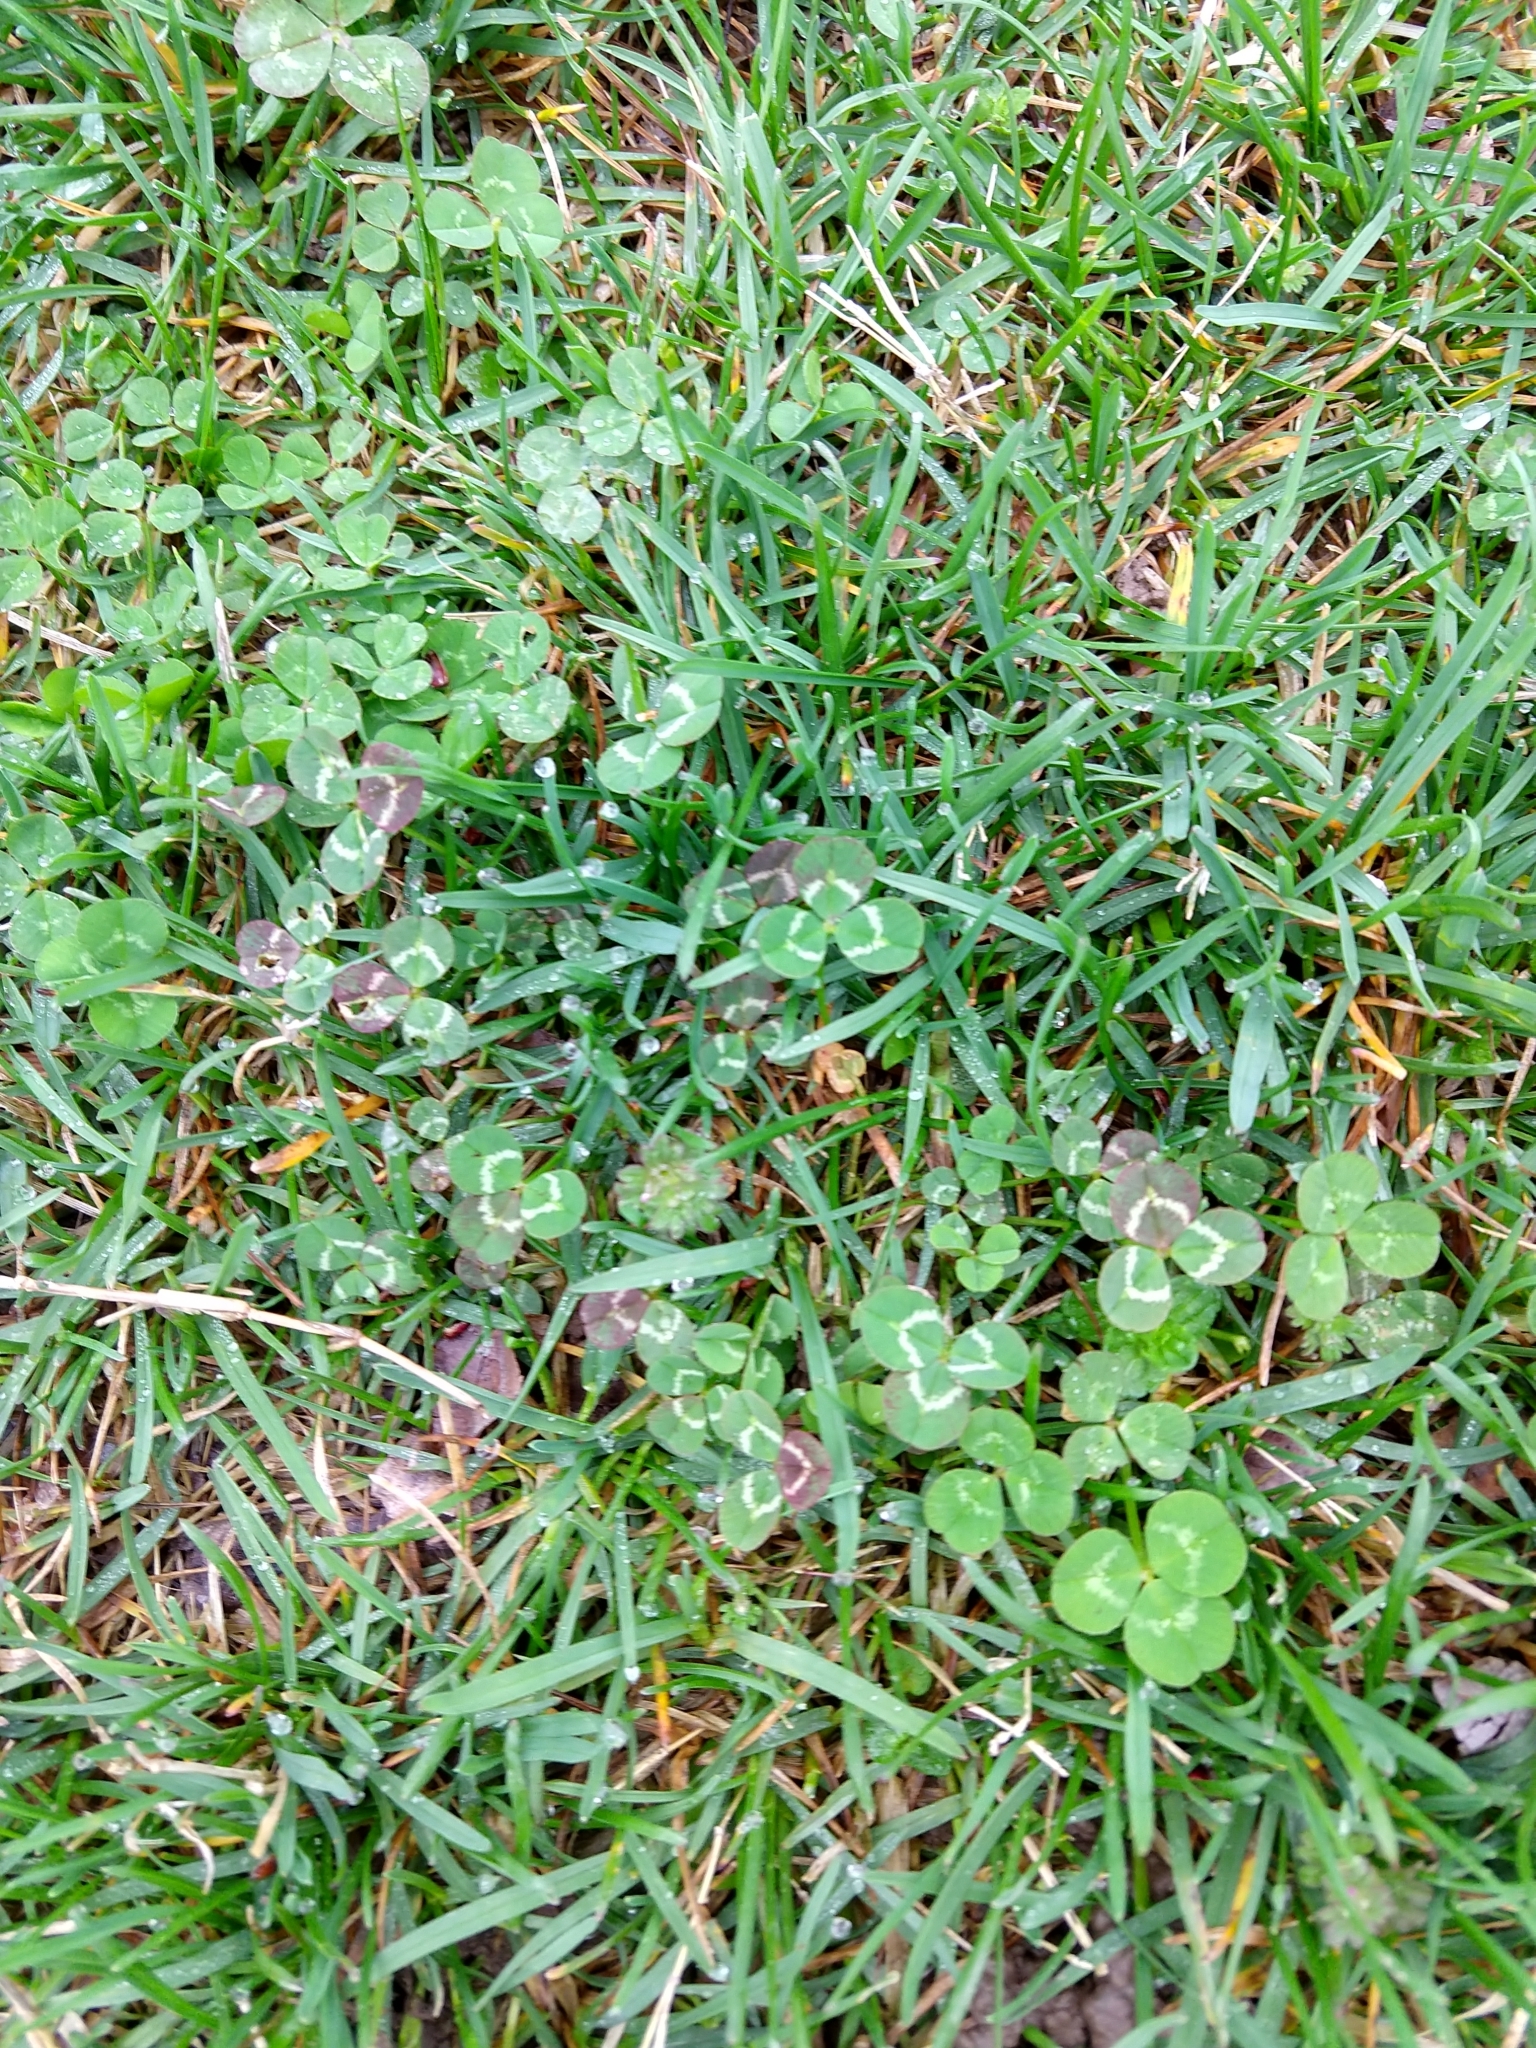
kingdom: Plantae
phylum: Tracheophyta
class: Magnoliopsida
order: Fabales
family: Fabaceae
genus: Trifolium
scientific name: Trifolium repens
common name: White clover
